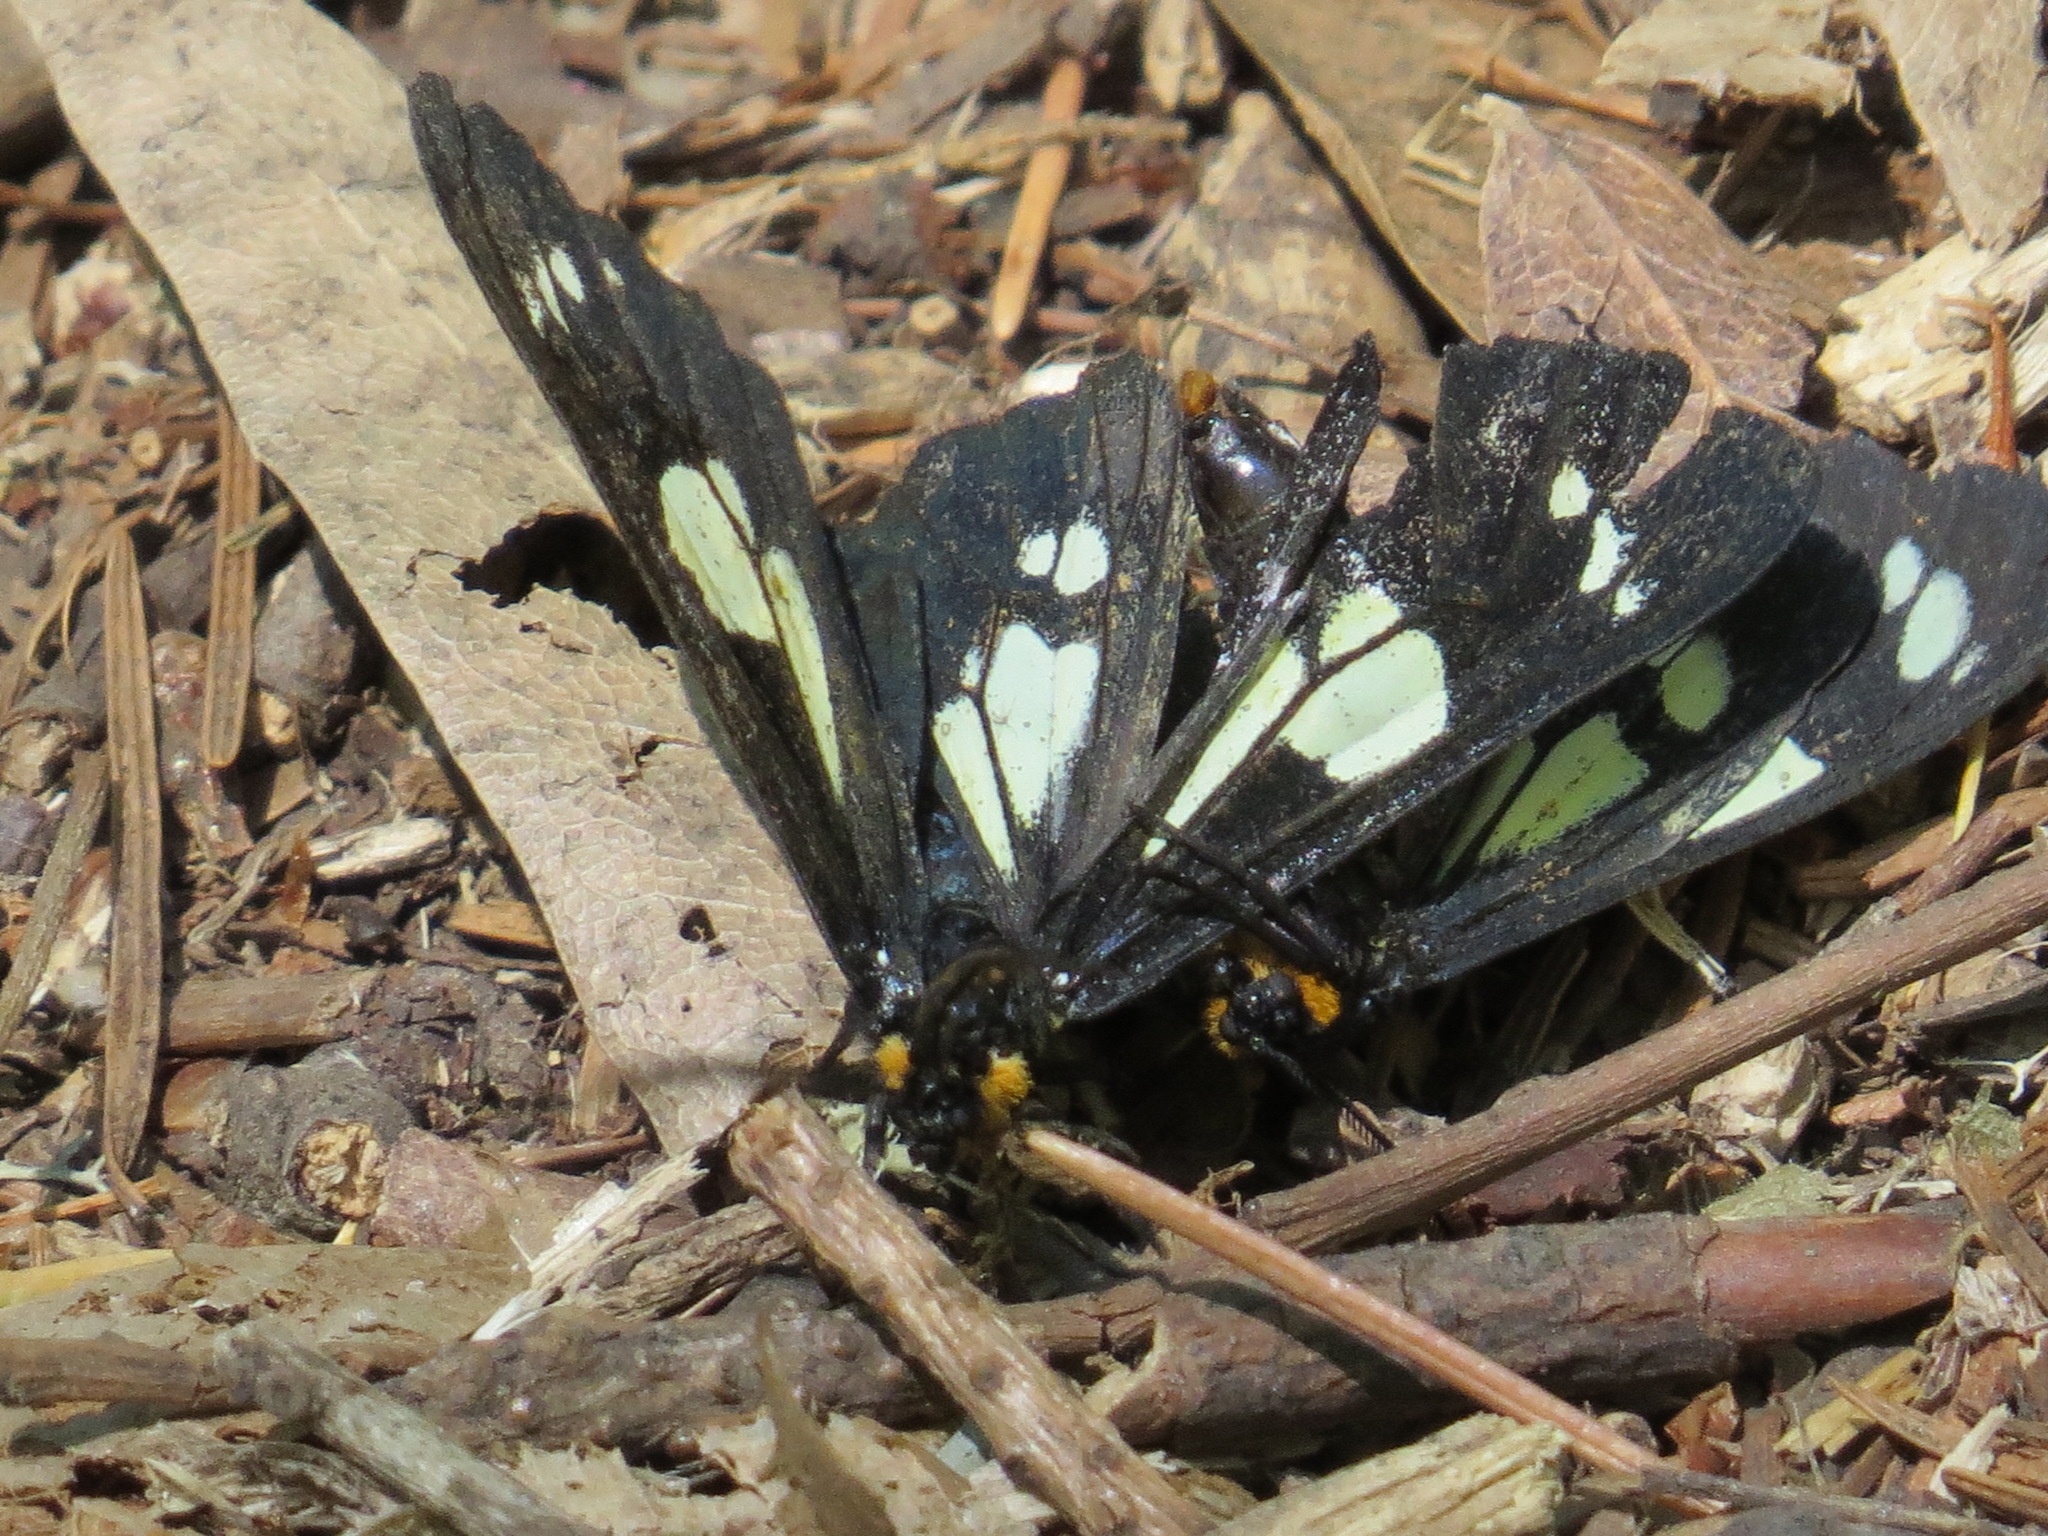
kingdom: Animalia
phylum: Arthropoda
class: Insecta
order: Lepidoptera
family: Erebidae
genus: Gnophaela
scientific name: Gnophaela latipennis
